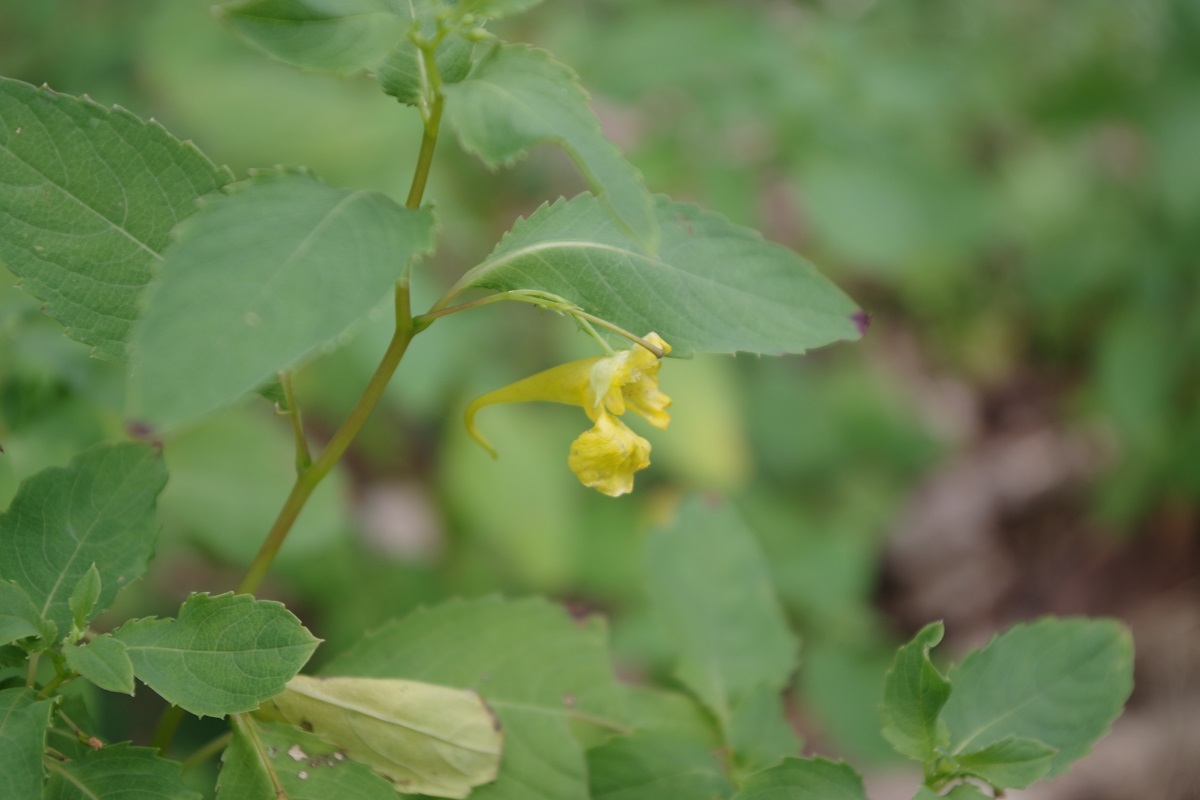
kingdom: Plantae
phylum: Tracheophyta
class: Magnoliopsida
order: Ericales
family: Balsaminaceae
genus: Impatiens
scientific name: Impatiens noli-tangere
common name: Touch-me-not balsam
